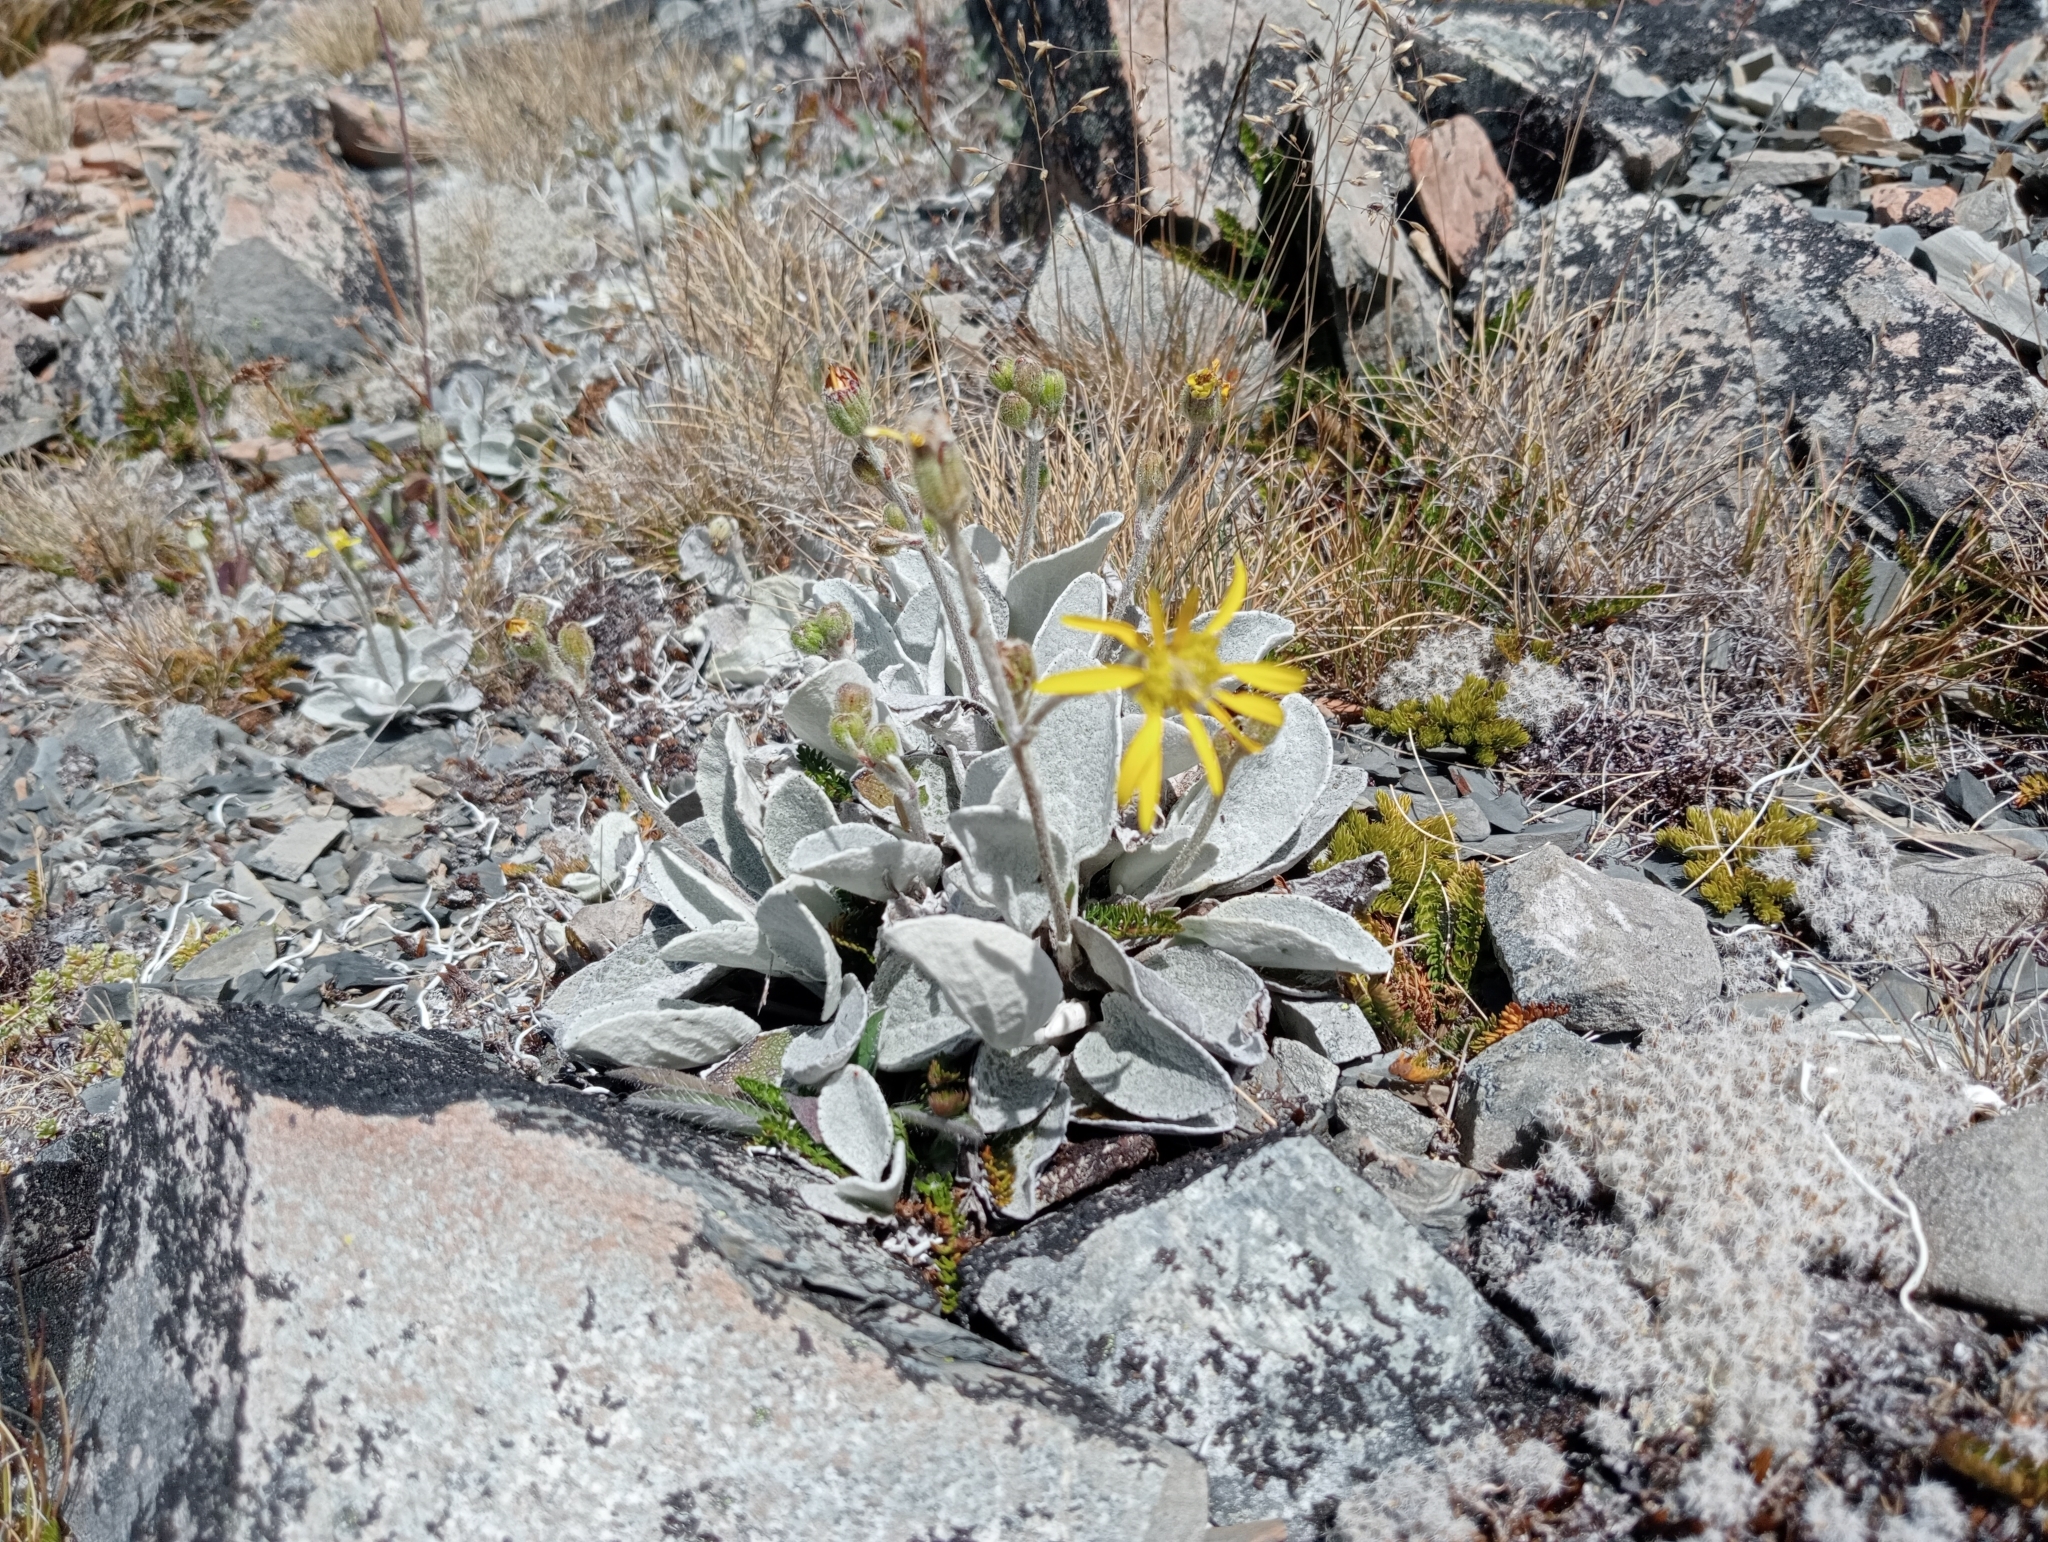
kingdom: Plantae
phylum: Tracheophyta
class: Magnoliopsida
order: Asterales
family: Asteraceae
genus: Brachyglottis
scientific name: Brachyglottis haastii
